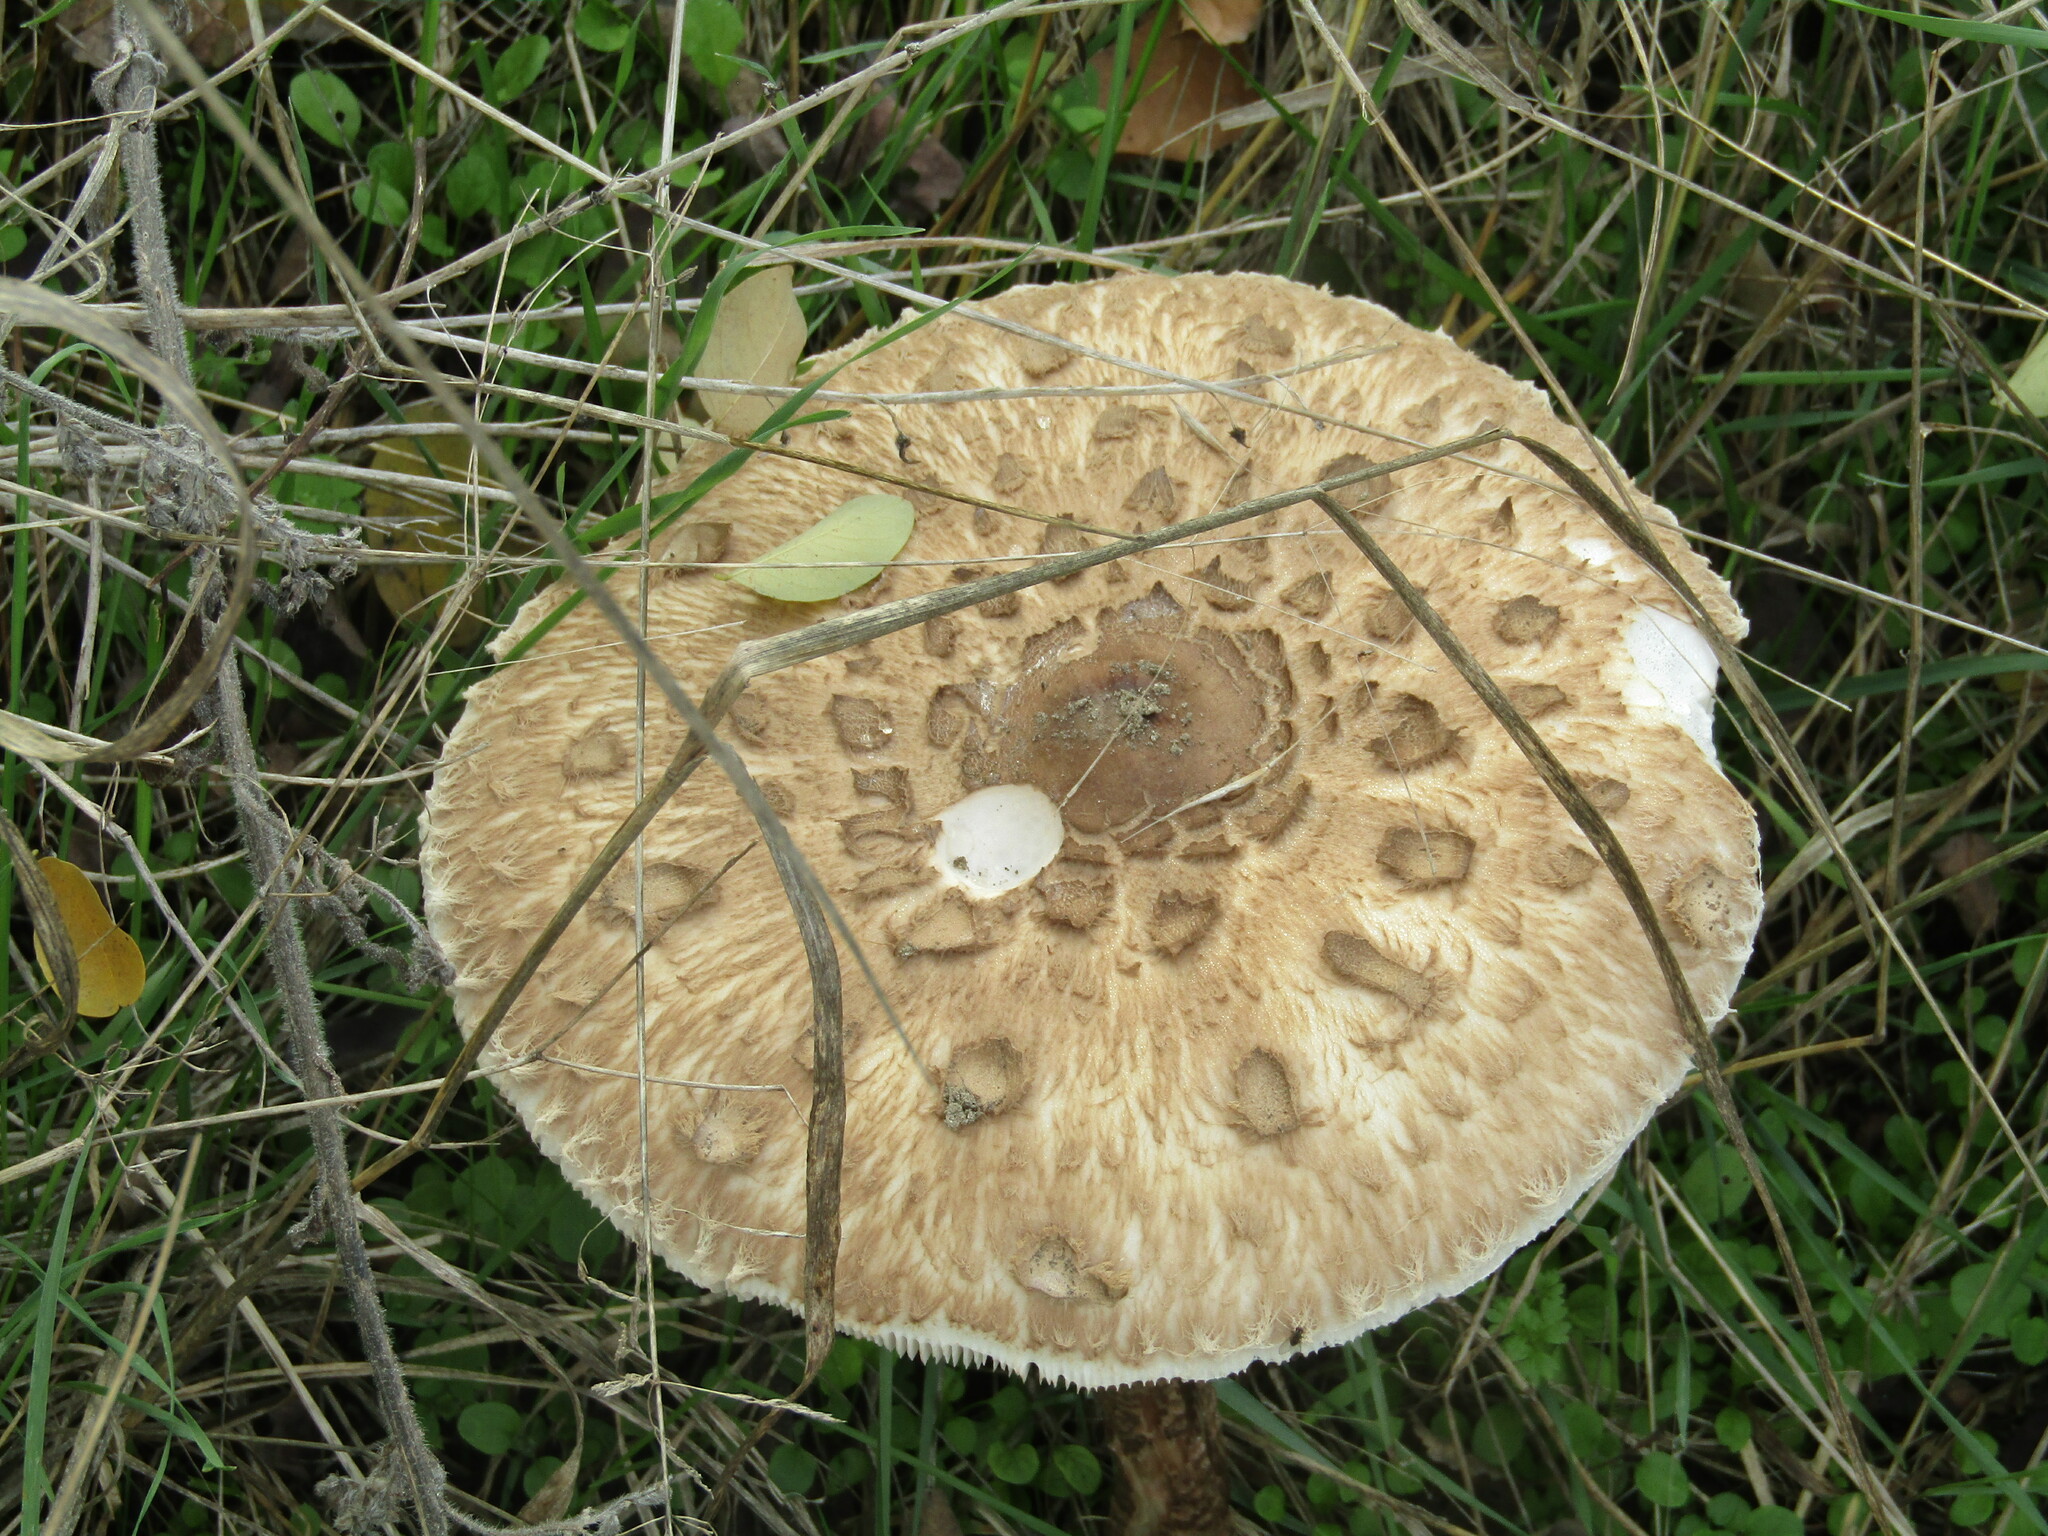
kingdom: Fungi
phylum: Basidiomycota
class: Agaricomycetes
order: Agaricales
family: Agaricaceae
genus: Macrolepiota
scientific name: Macrolepiota procera
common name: Parasol
